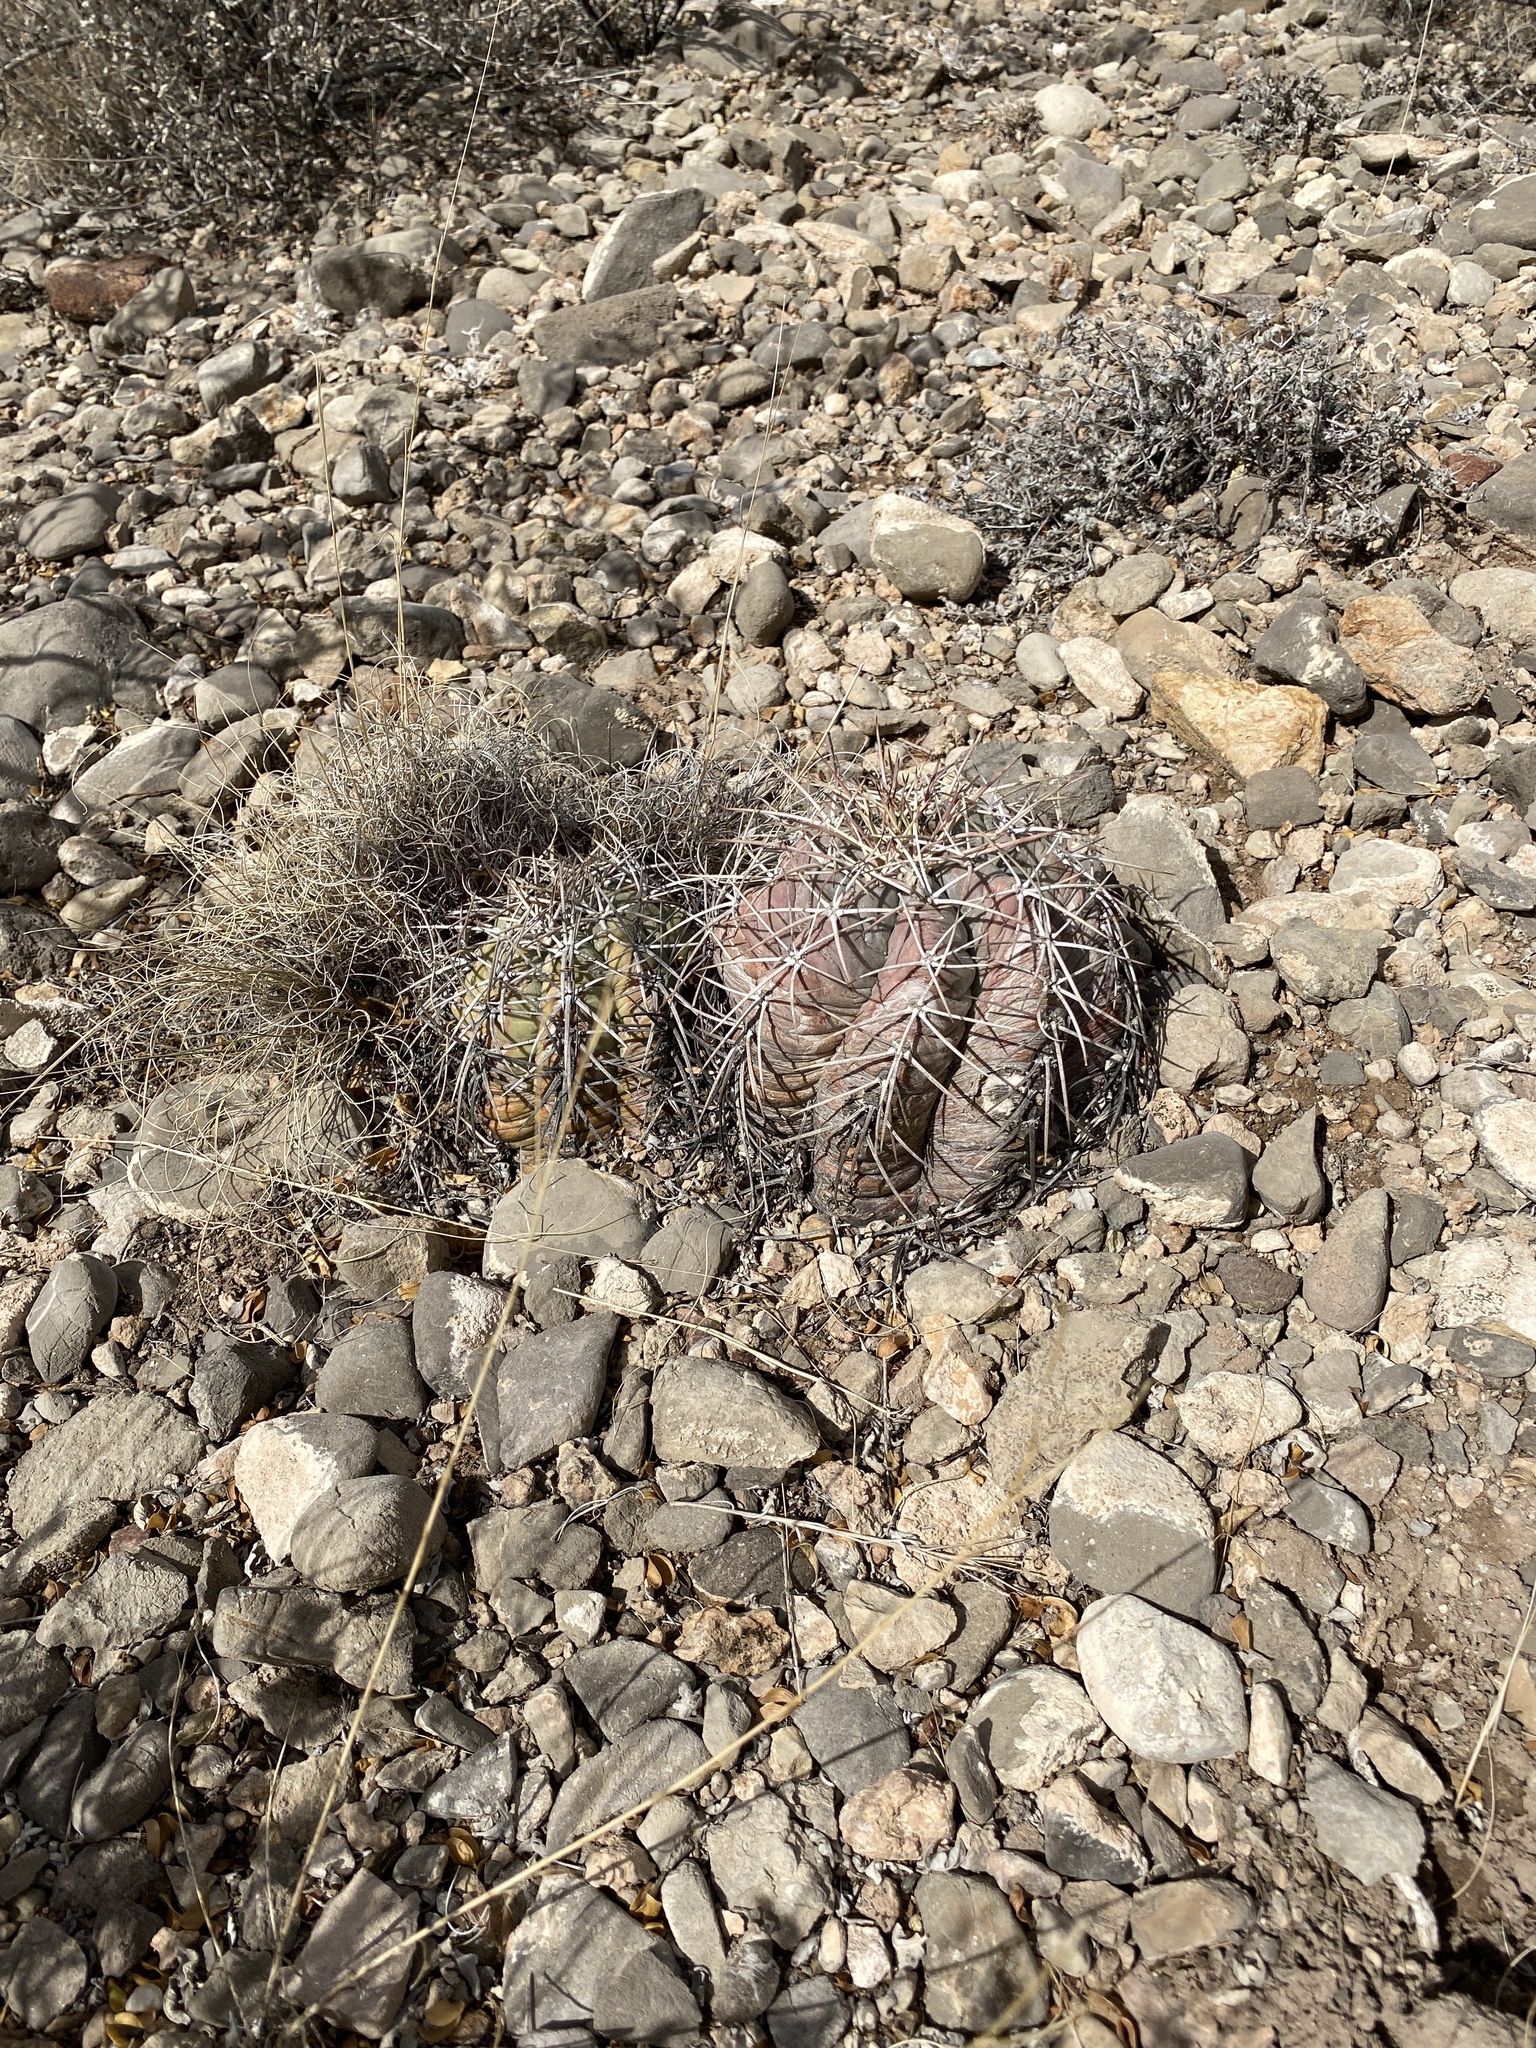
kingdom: Plantae
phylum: Tracheophyta
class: Magnoliopsida
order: Caryophyllales
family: Cactaceae
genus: Echinocactus
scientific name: Echinocactus horizonthalonius
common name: Devilshead
